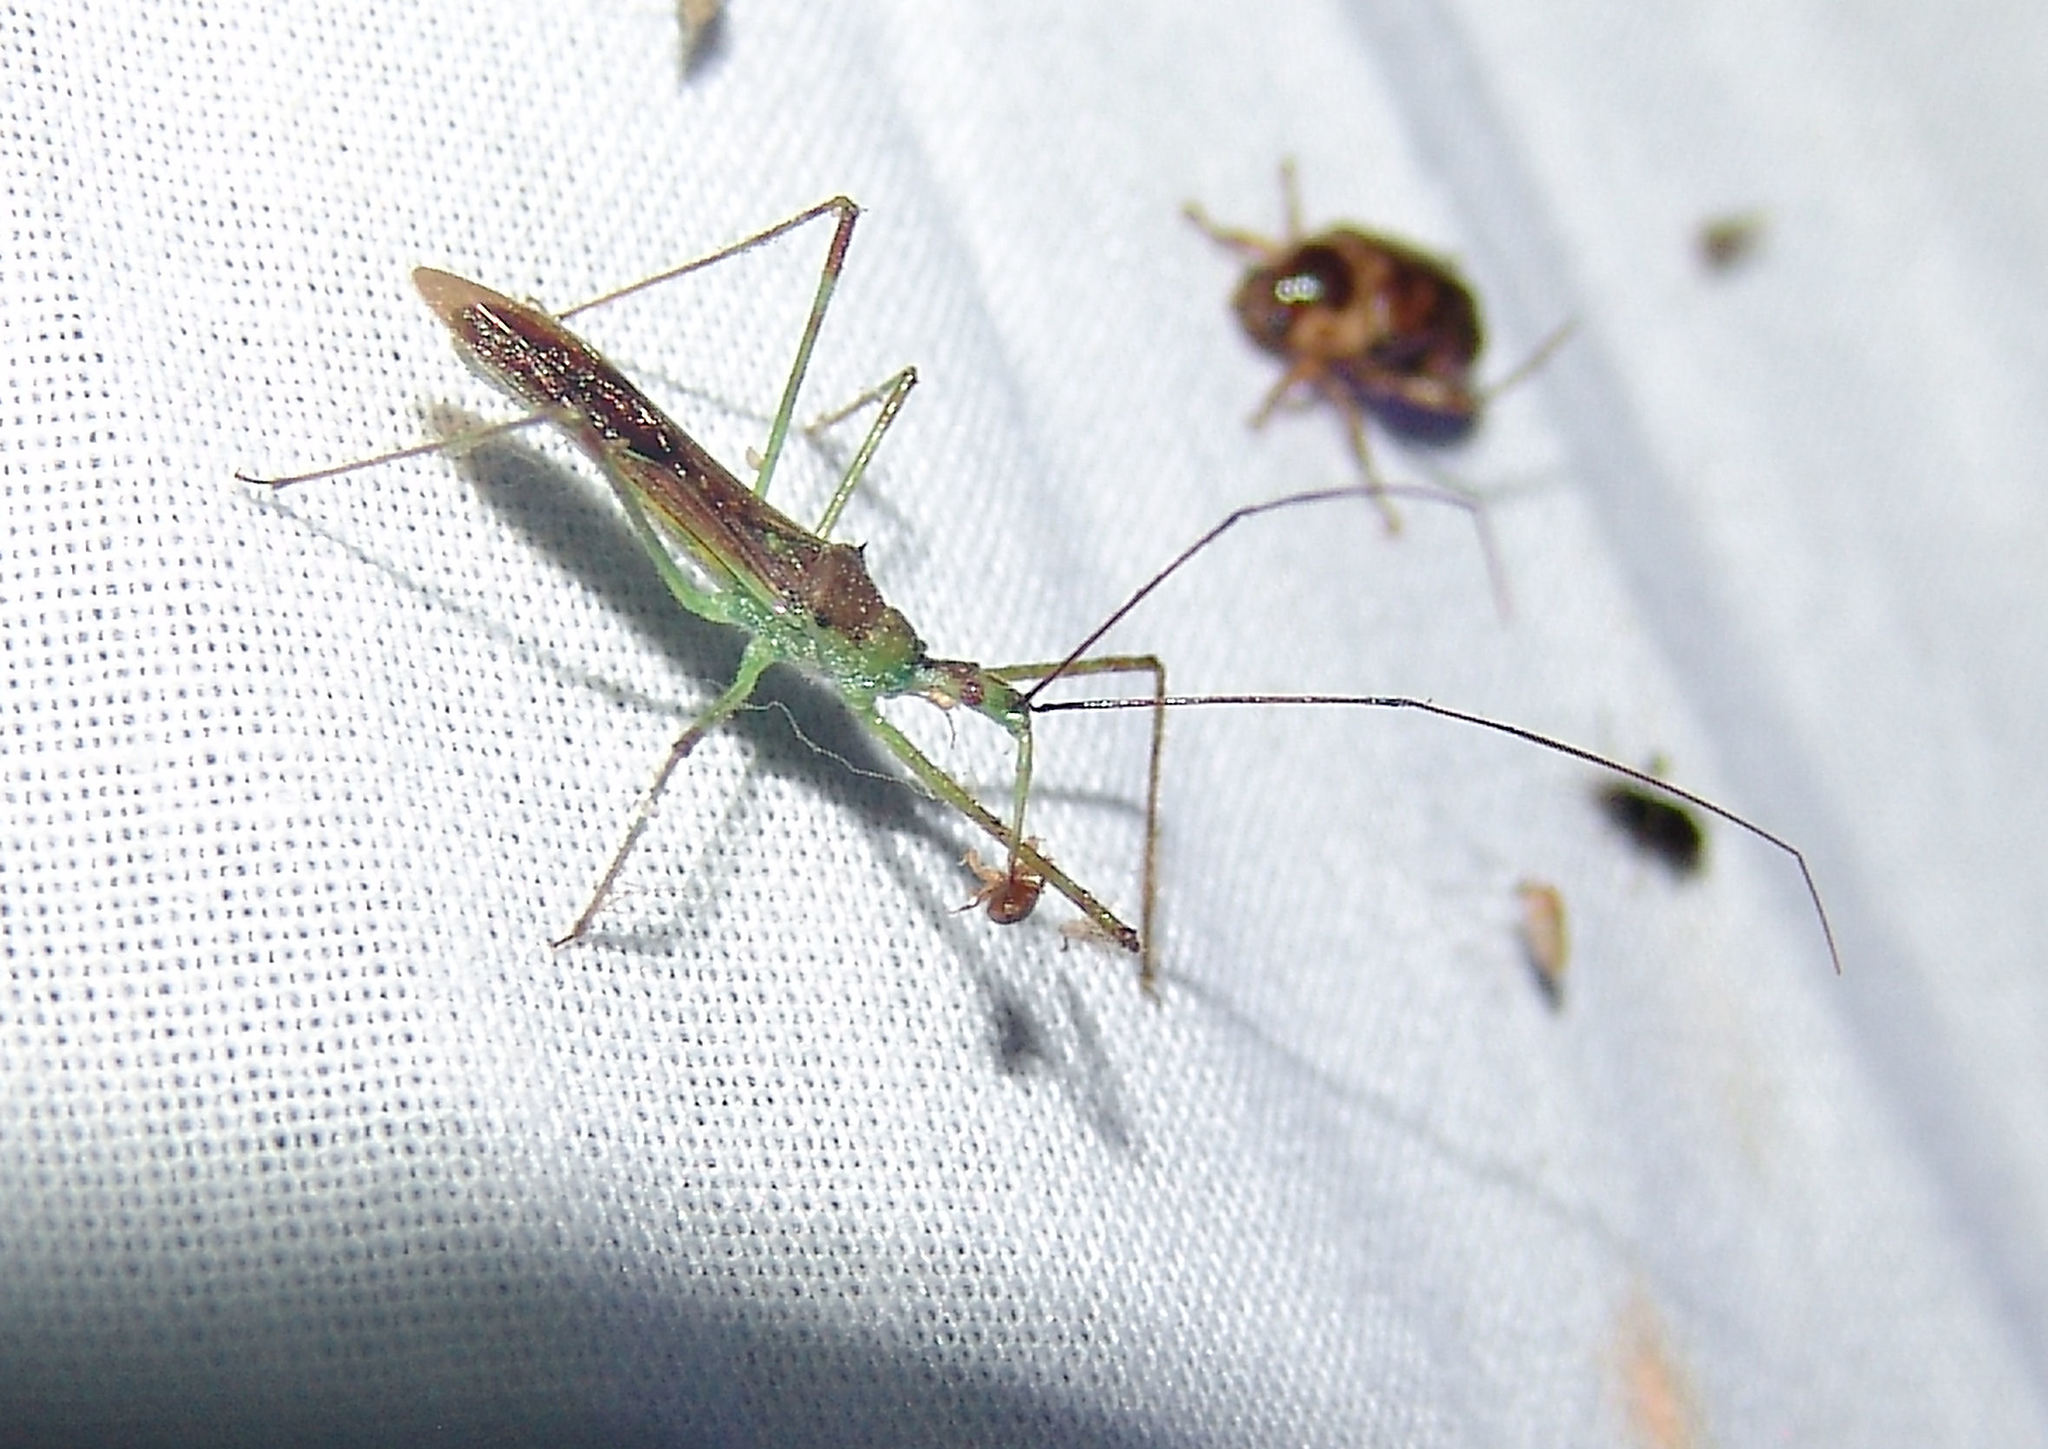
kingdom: Animalia
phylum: Arthropoda
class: Insecta
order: Hemiptera
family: Reduviidae
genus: Zelus
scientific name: Zelus luridus
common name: Pale green assassin bug
